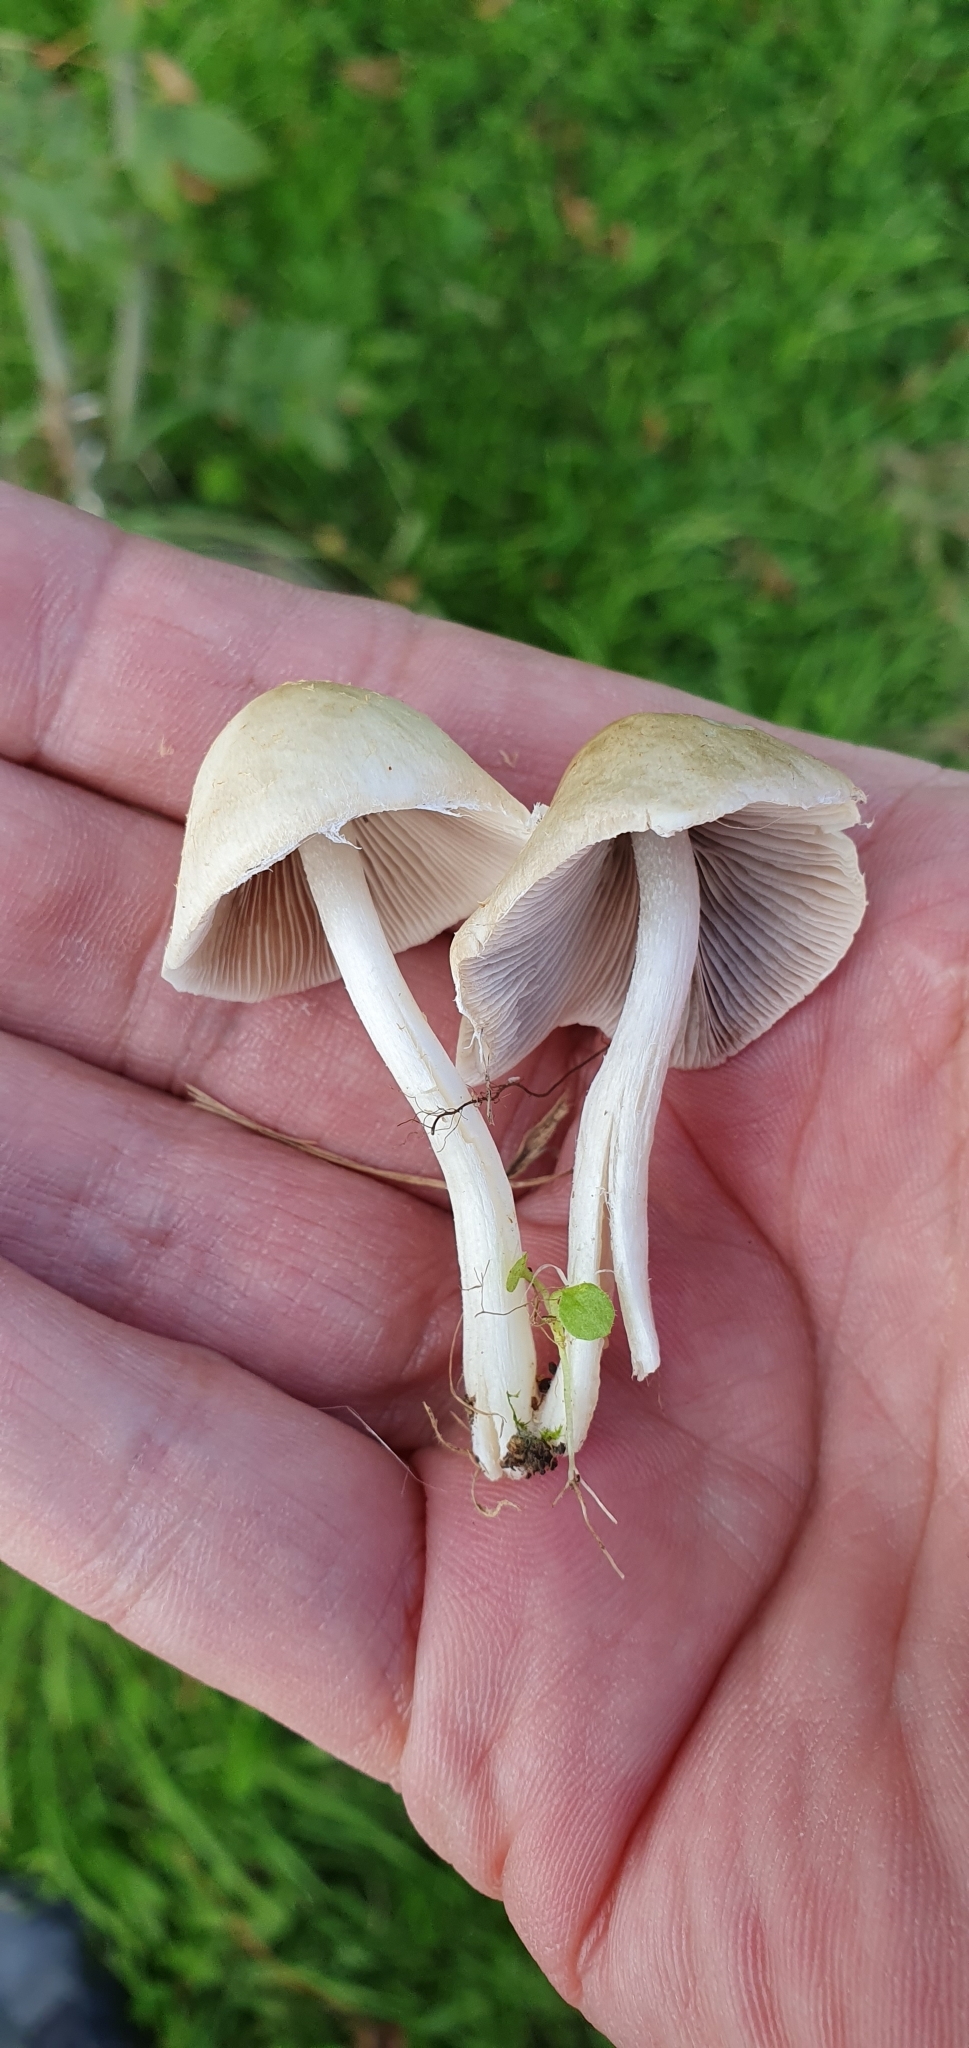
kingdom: Fungi
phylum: Basidiomycota
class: Agaricomycetes
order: Agaricales
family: Psathyrellaceae
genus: Candolleomyces
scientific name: Candolleomyces candolleanus
